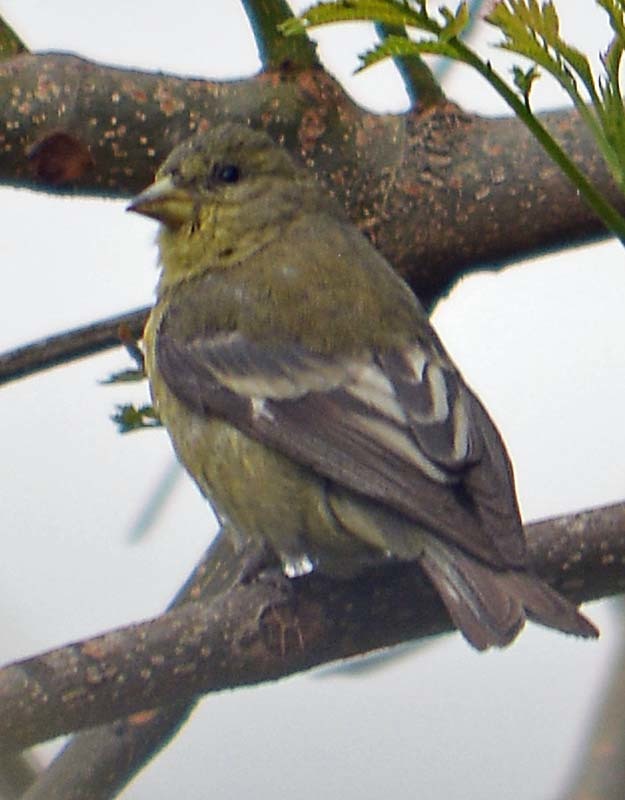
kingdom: Animalia
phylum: Chordata
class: Aves
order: Passeriformes
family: Fringillidae
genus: Spinus
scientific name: Spinus psaltria
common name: Lesser goldfinch
